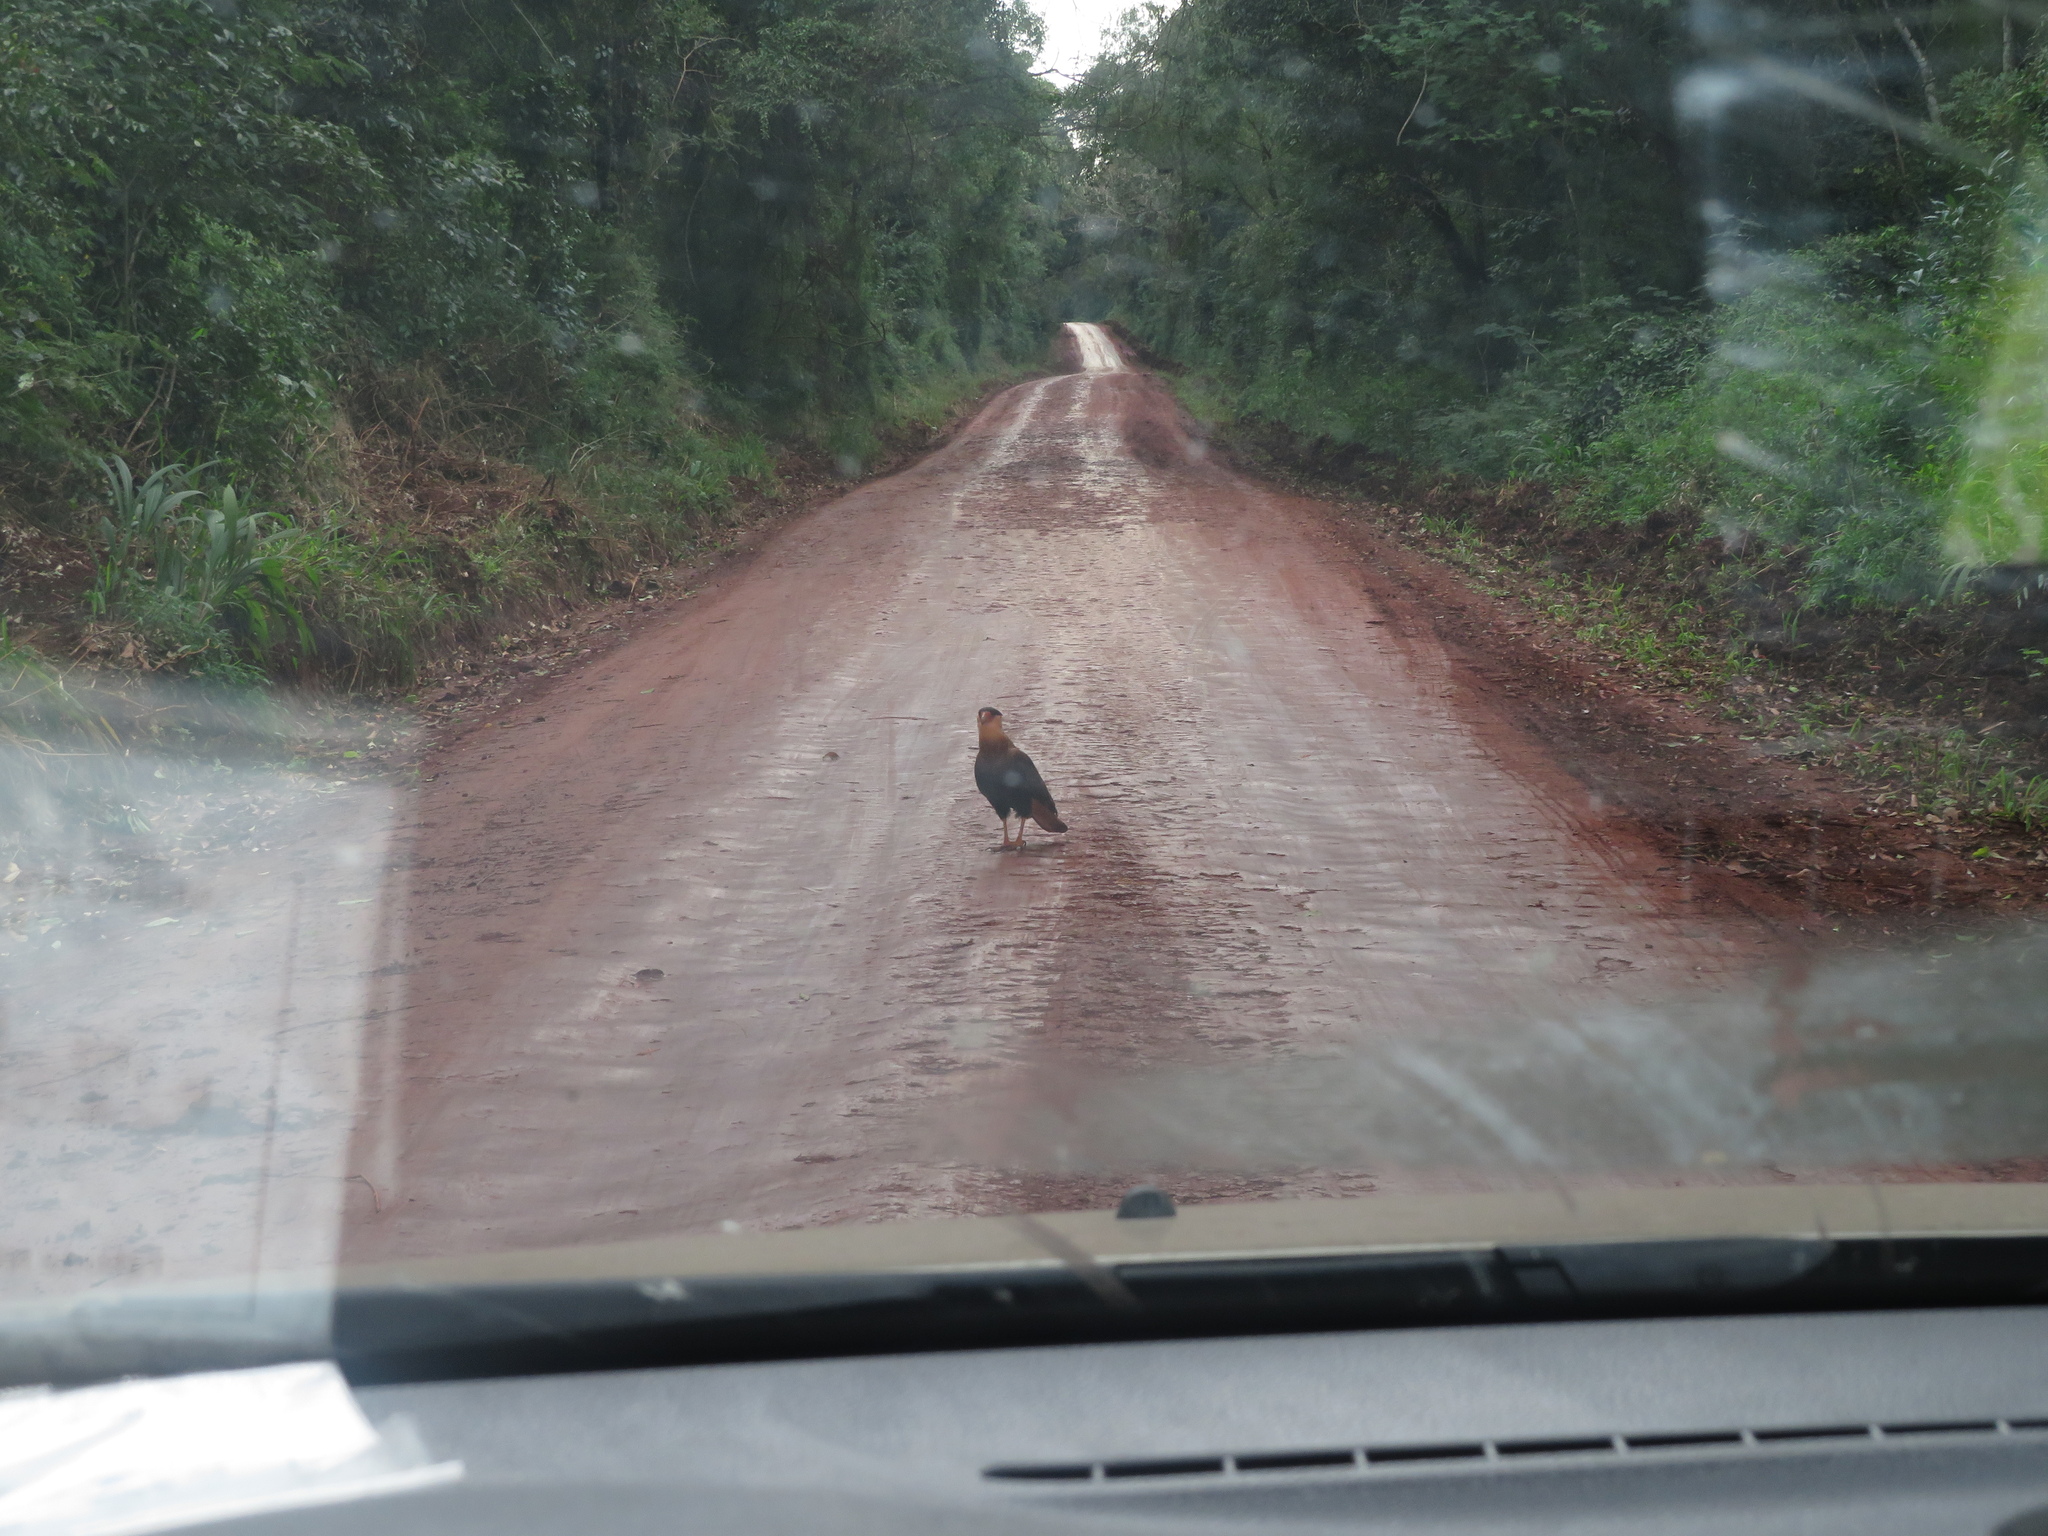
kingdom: Animalia
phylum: Chordata
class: Aves
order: Falconiformes
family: Falconidae
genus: Caracara
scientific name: Caracara plancus
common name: Southern caracara
